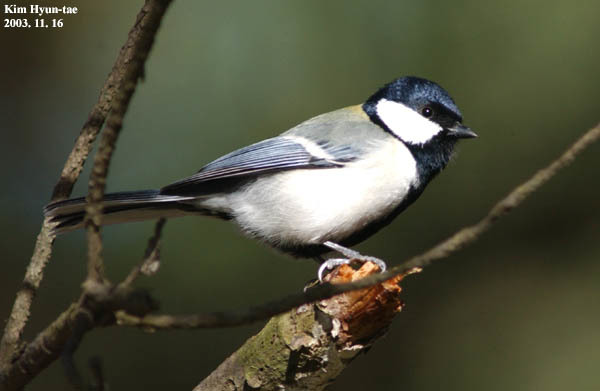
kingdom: Animalia
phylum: Chordata
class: Aves
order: Passeriformes
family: Paridae
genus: Parus
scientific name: Parus minor
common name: Japanese tit
